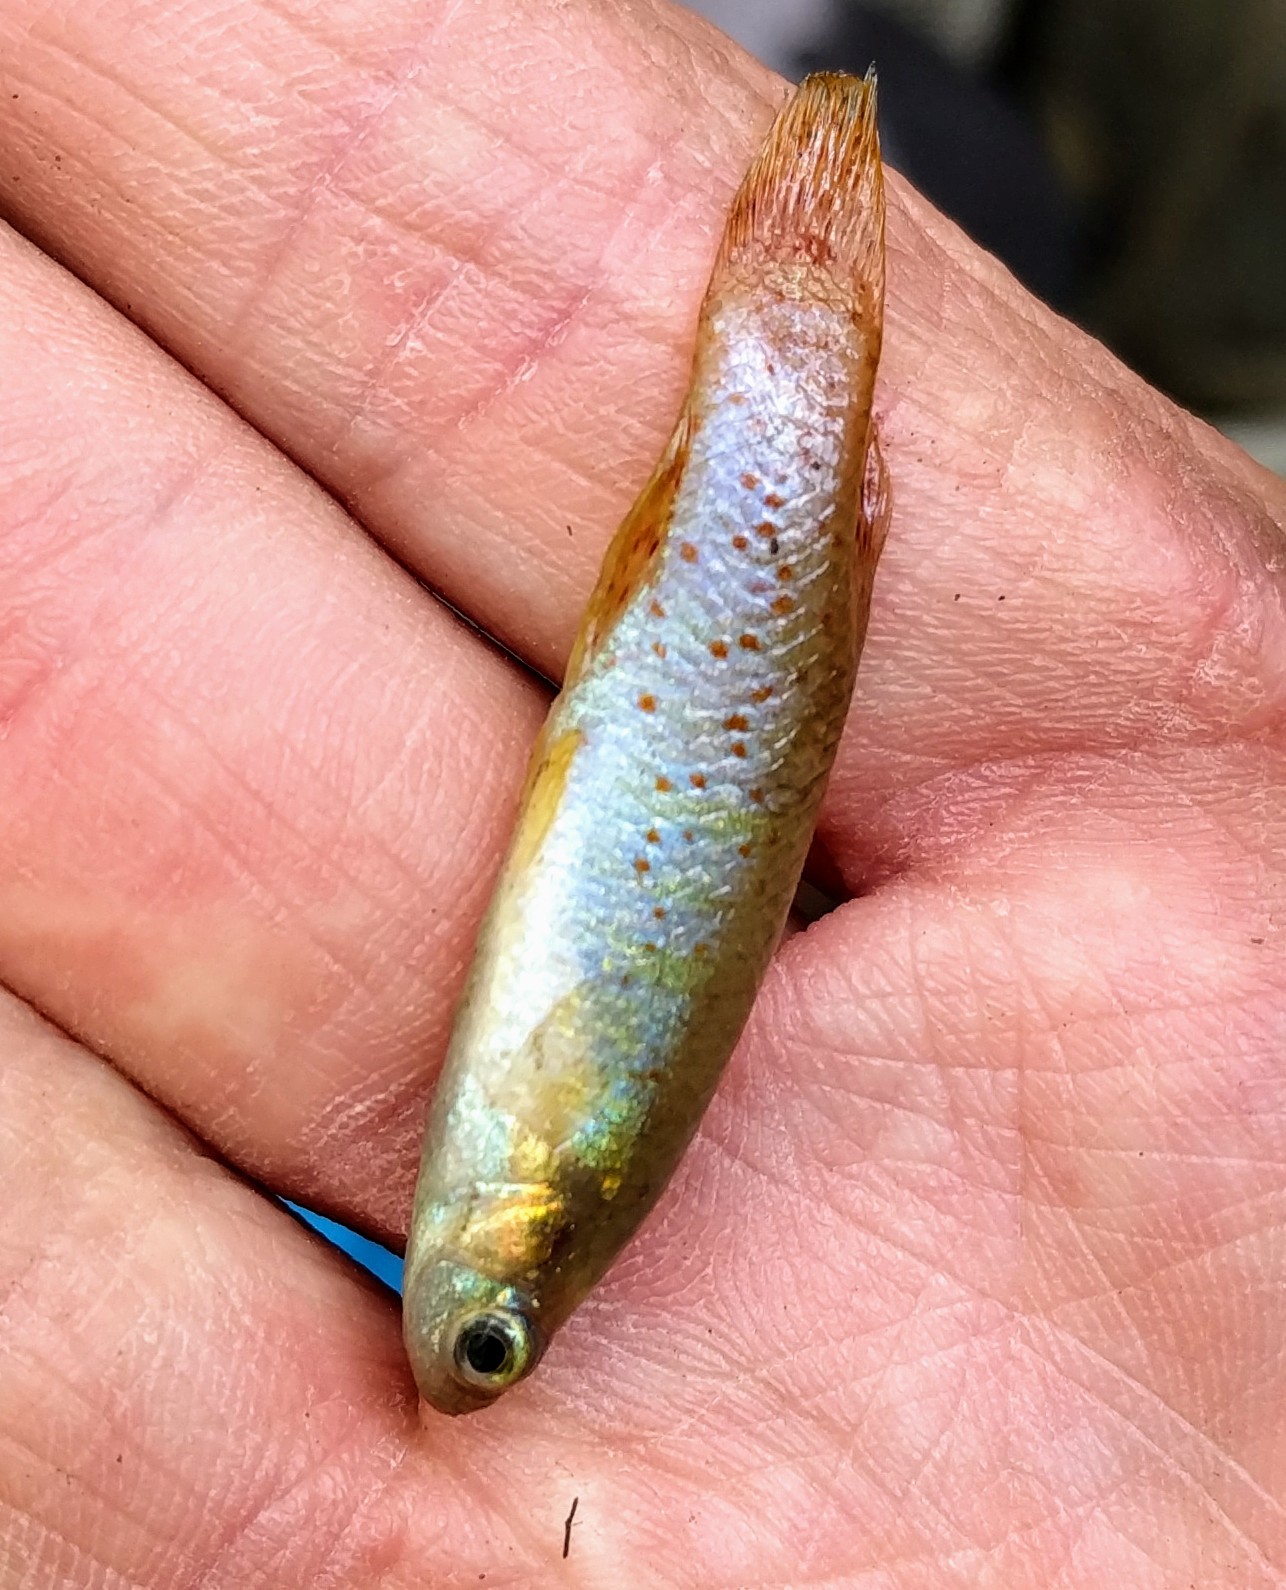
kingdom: Animalia
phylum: Chordata
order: Cyprinodontiformes
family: Fundulidae
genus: Fundulus
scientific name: Fundulus chrysotus
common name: Golden topminnow
